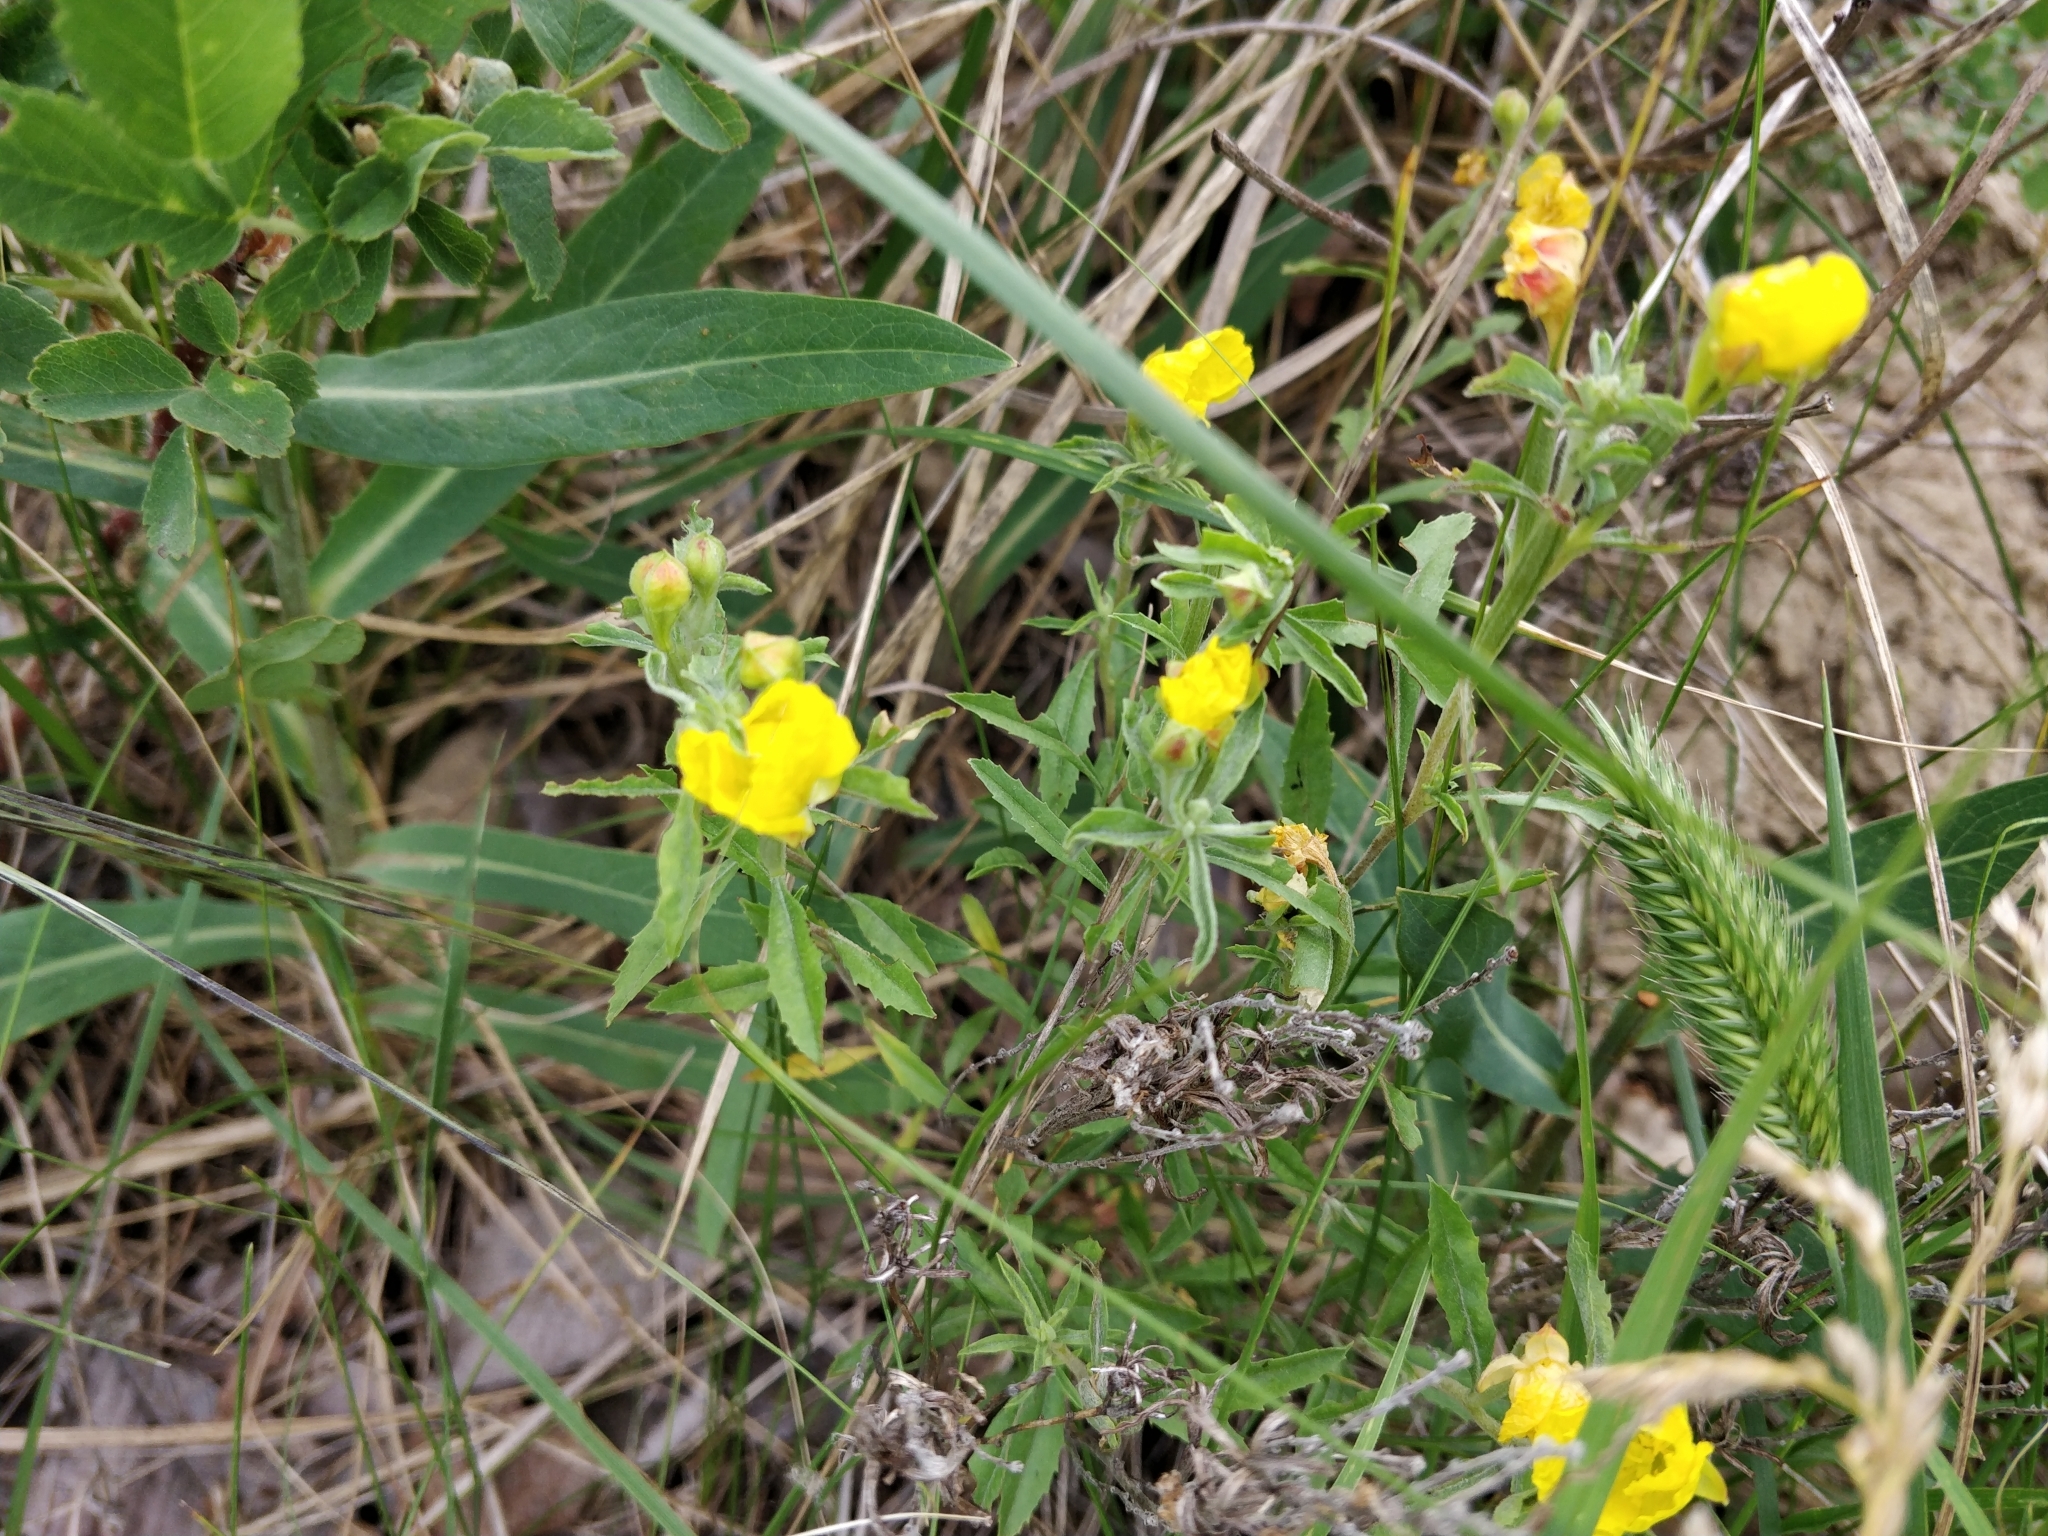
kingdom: Plantae
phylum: Tracheophyta
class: Magnoliopsida
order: Myrtales
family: Onagraceae
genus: Oenothera
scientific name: Oenothera serrulata
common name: Half-shrub calylophus
